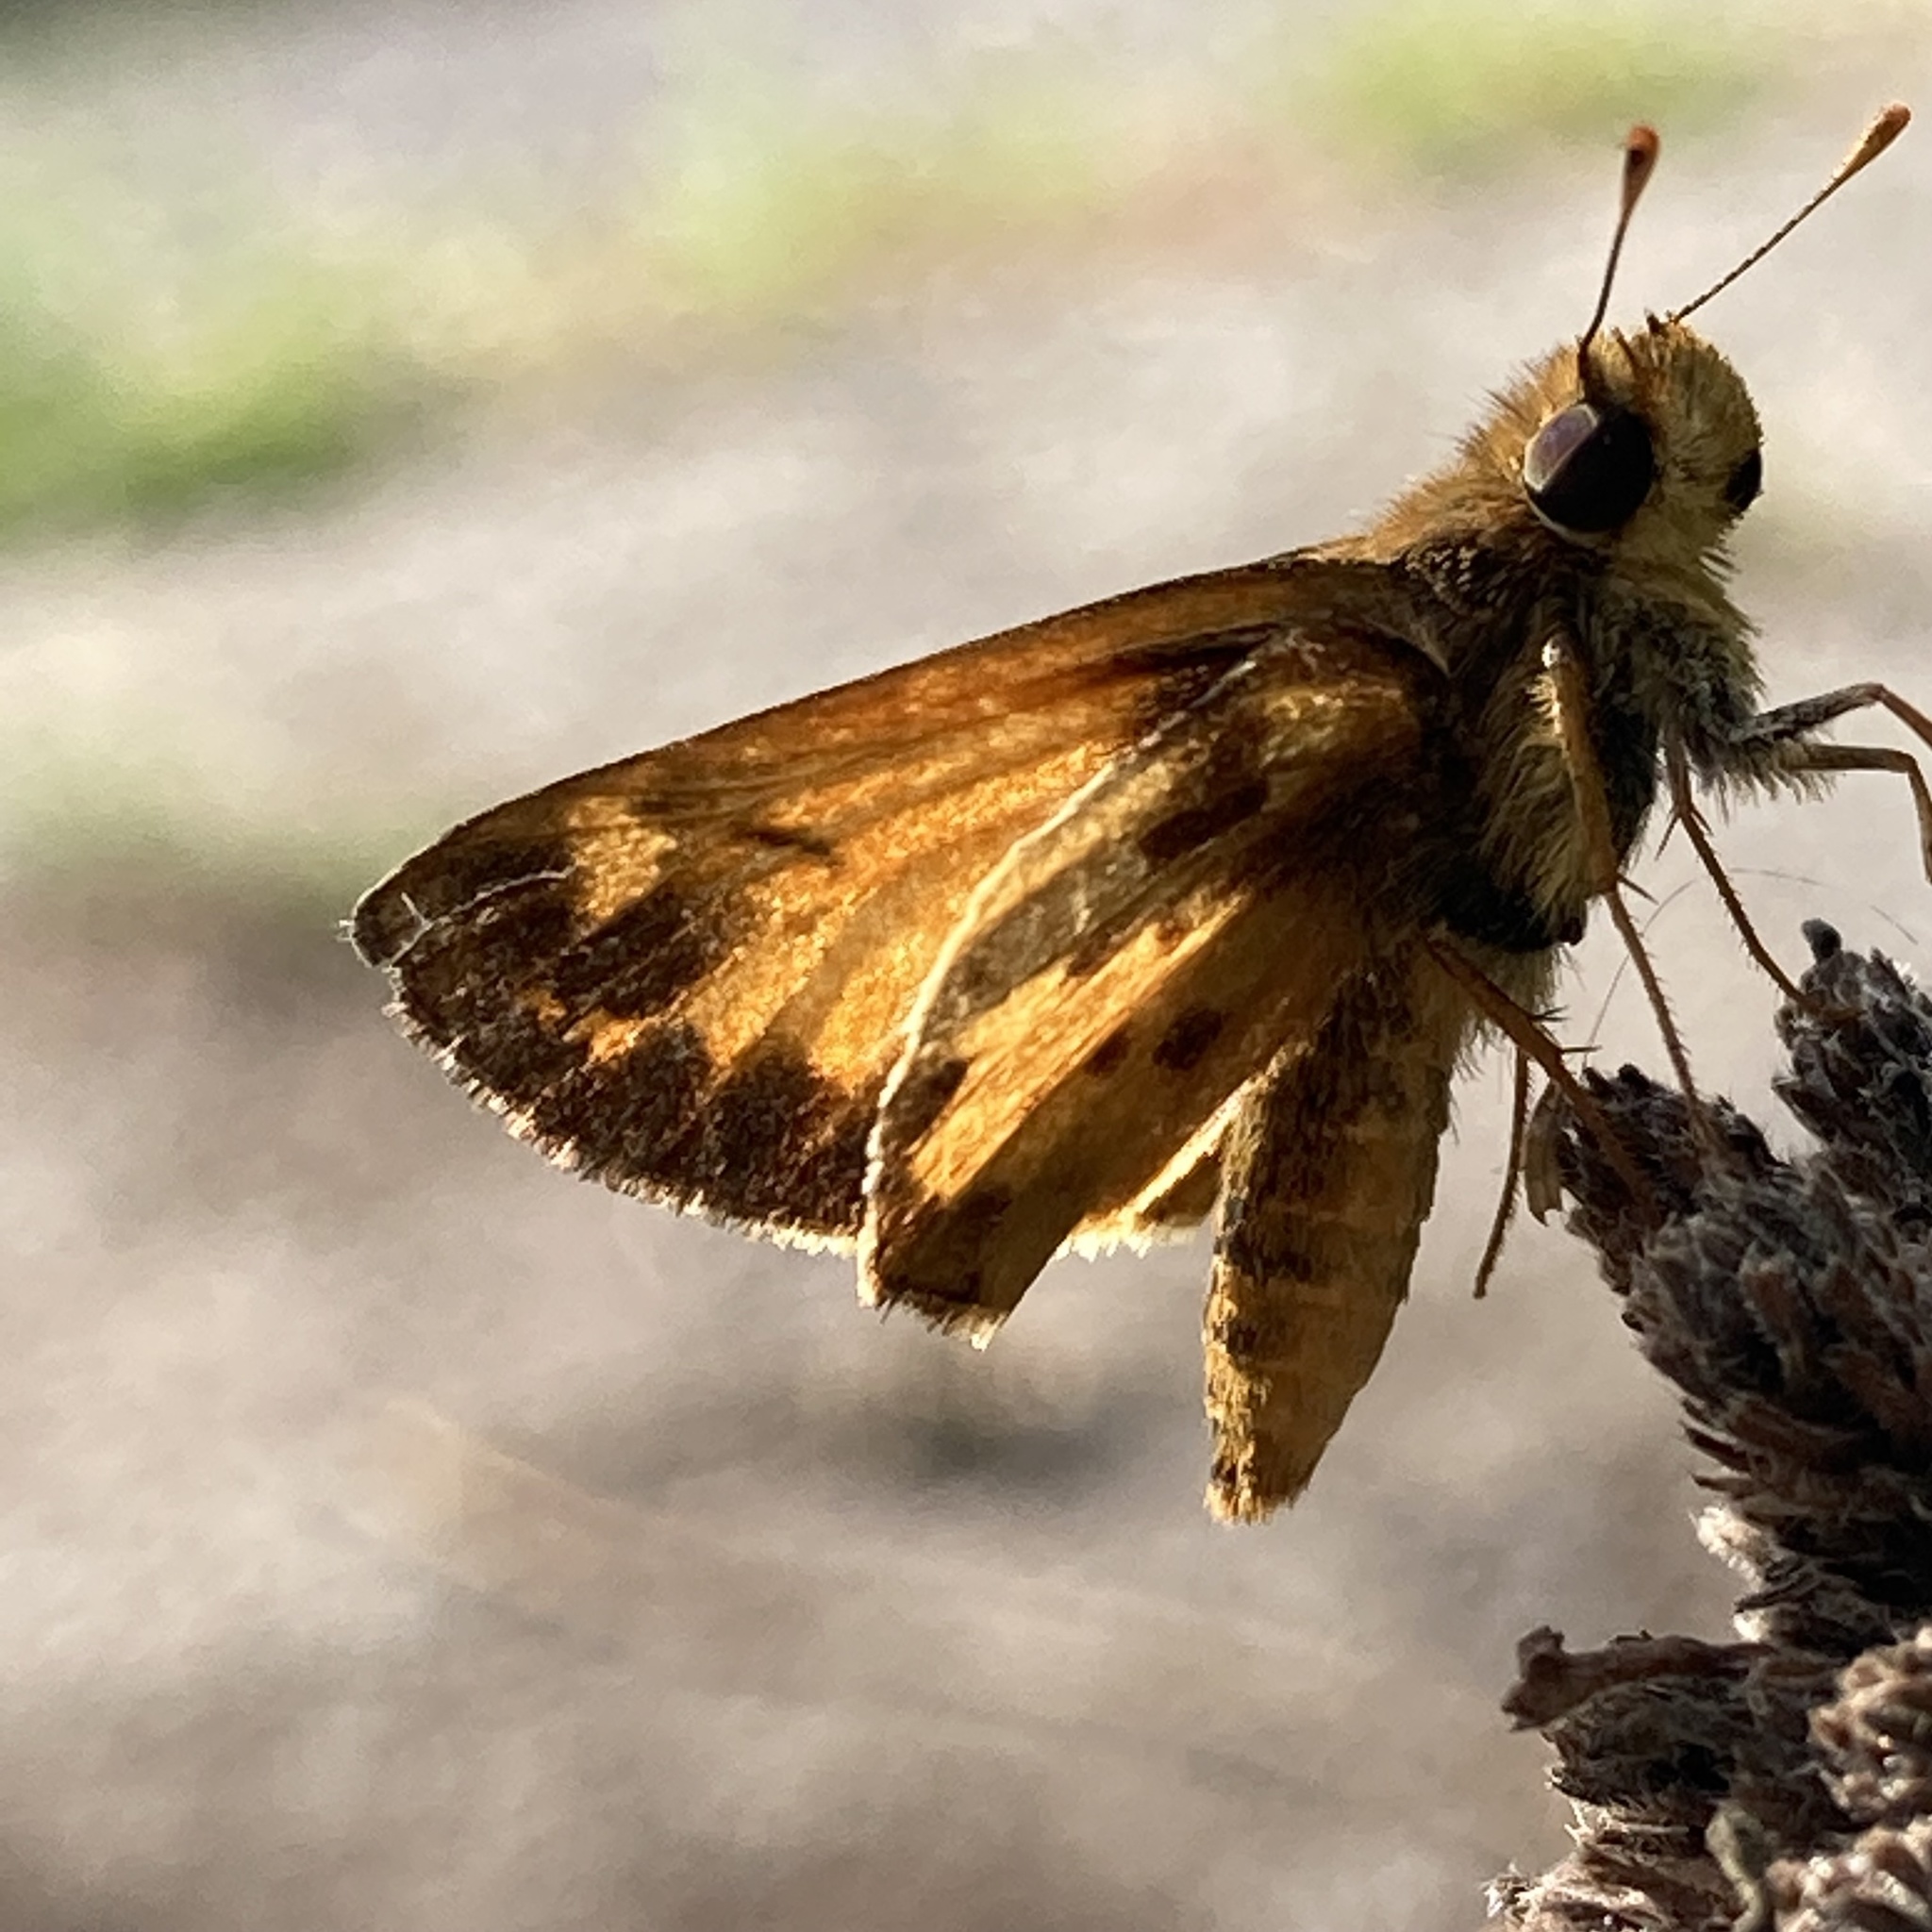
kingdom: Animalia
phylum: Arthropoda
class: Insecta
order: Lepidoptera
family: Hesperiidae
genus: Lon
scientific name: Lon zabulon
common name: Zabulon skipper
